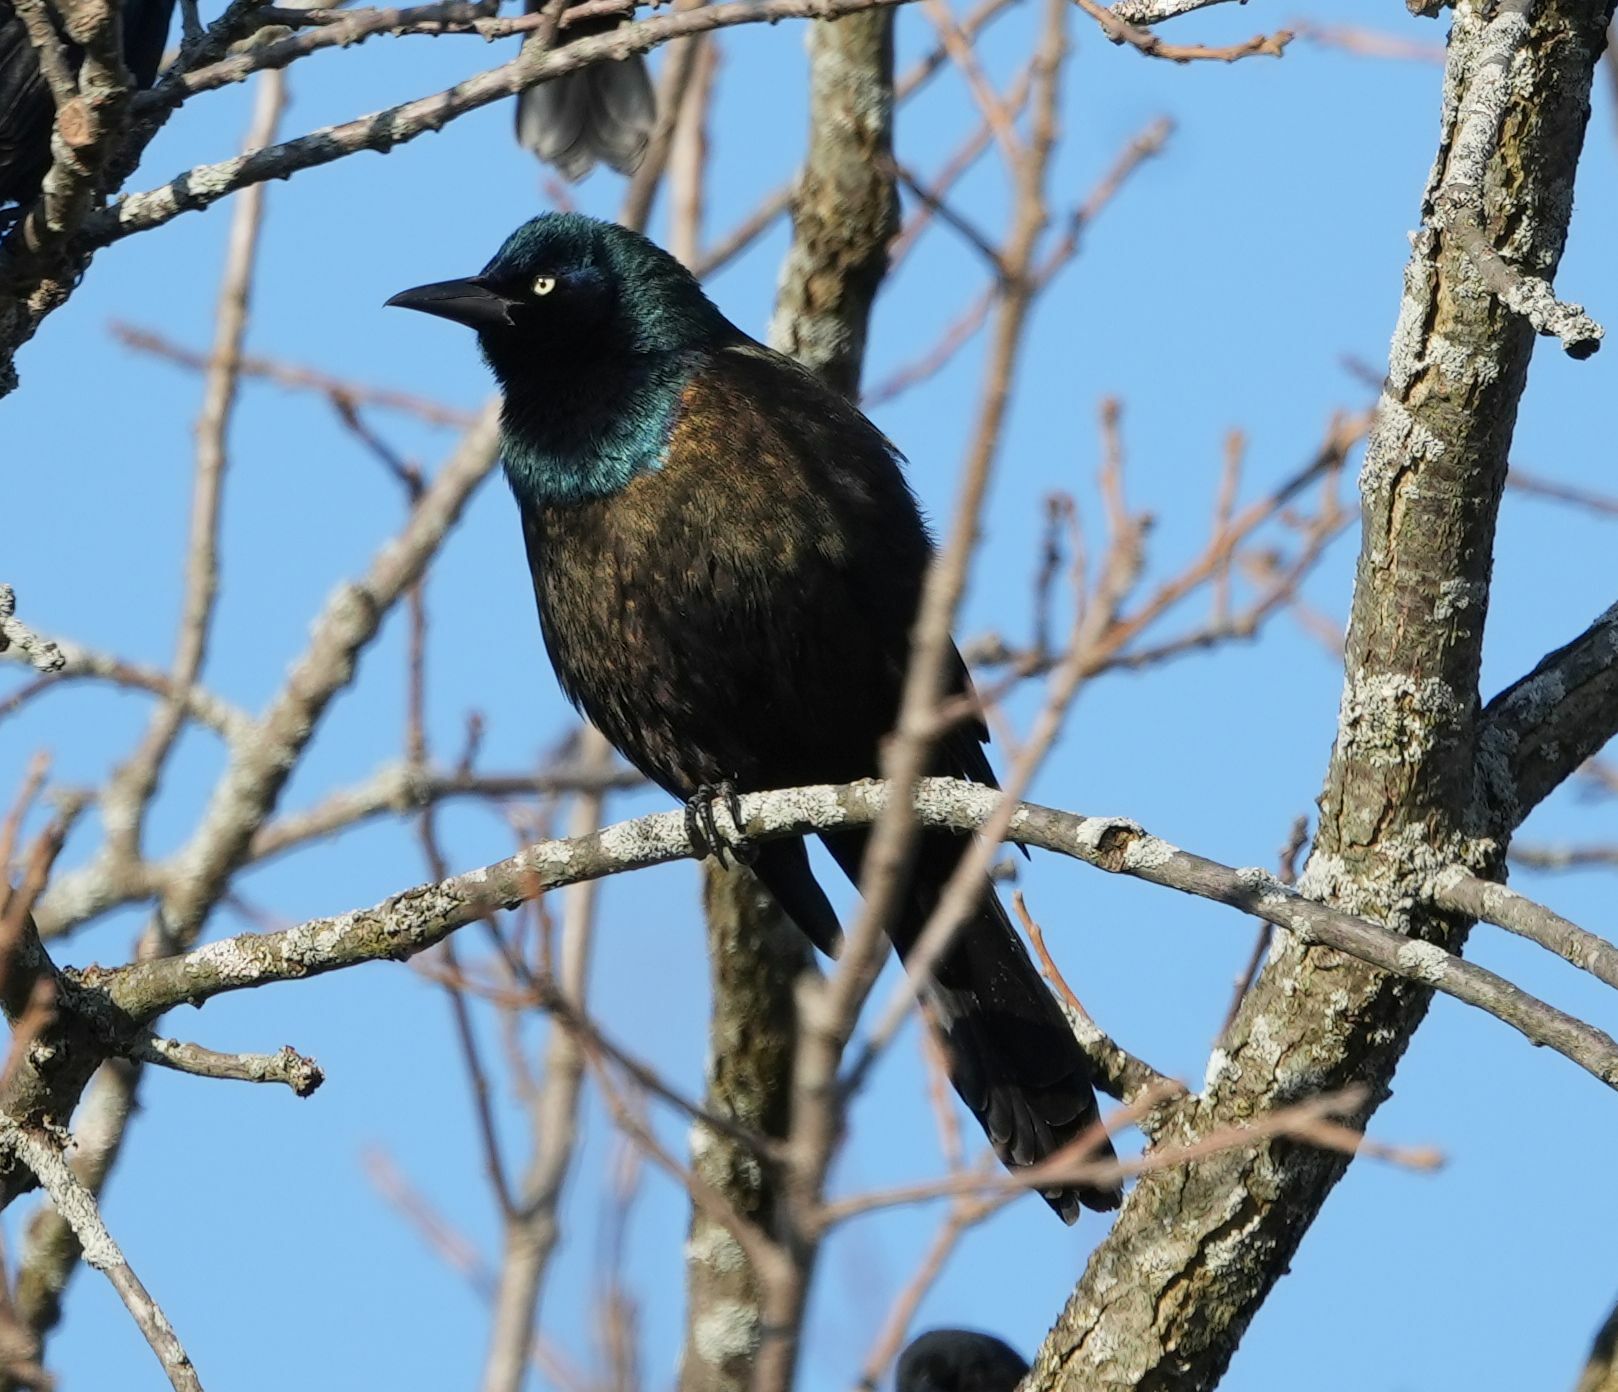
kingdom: Animalia
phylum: Chordata
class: Aves
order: Passeriformes
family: Icteridae
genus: Quiscalus
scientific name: Quiscalus quiscula
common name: Common grackle
